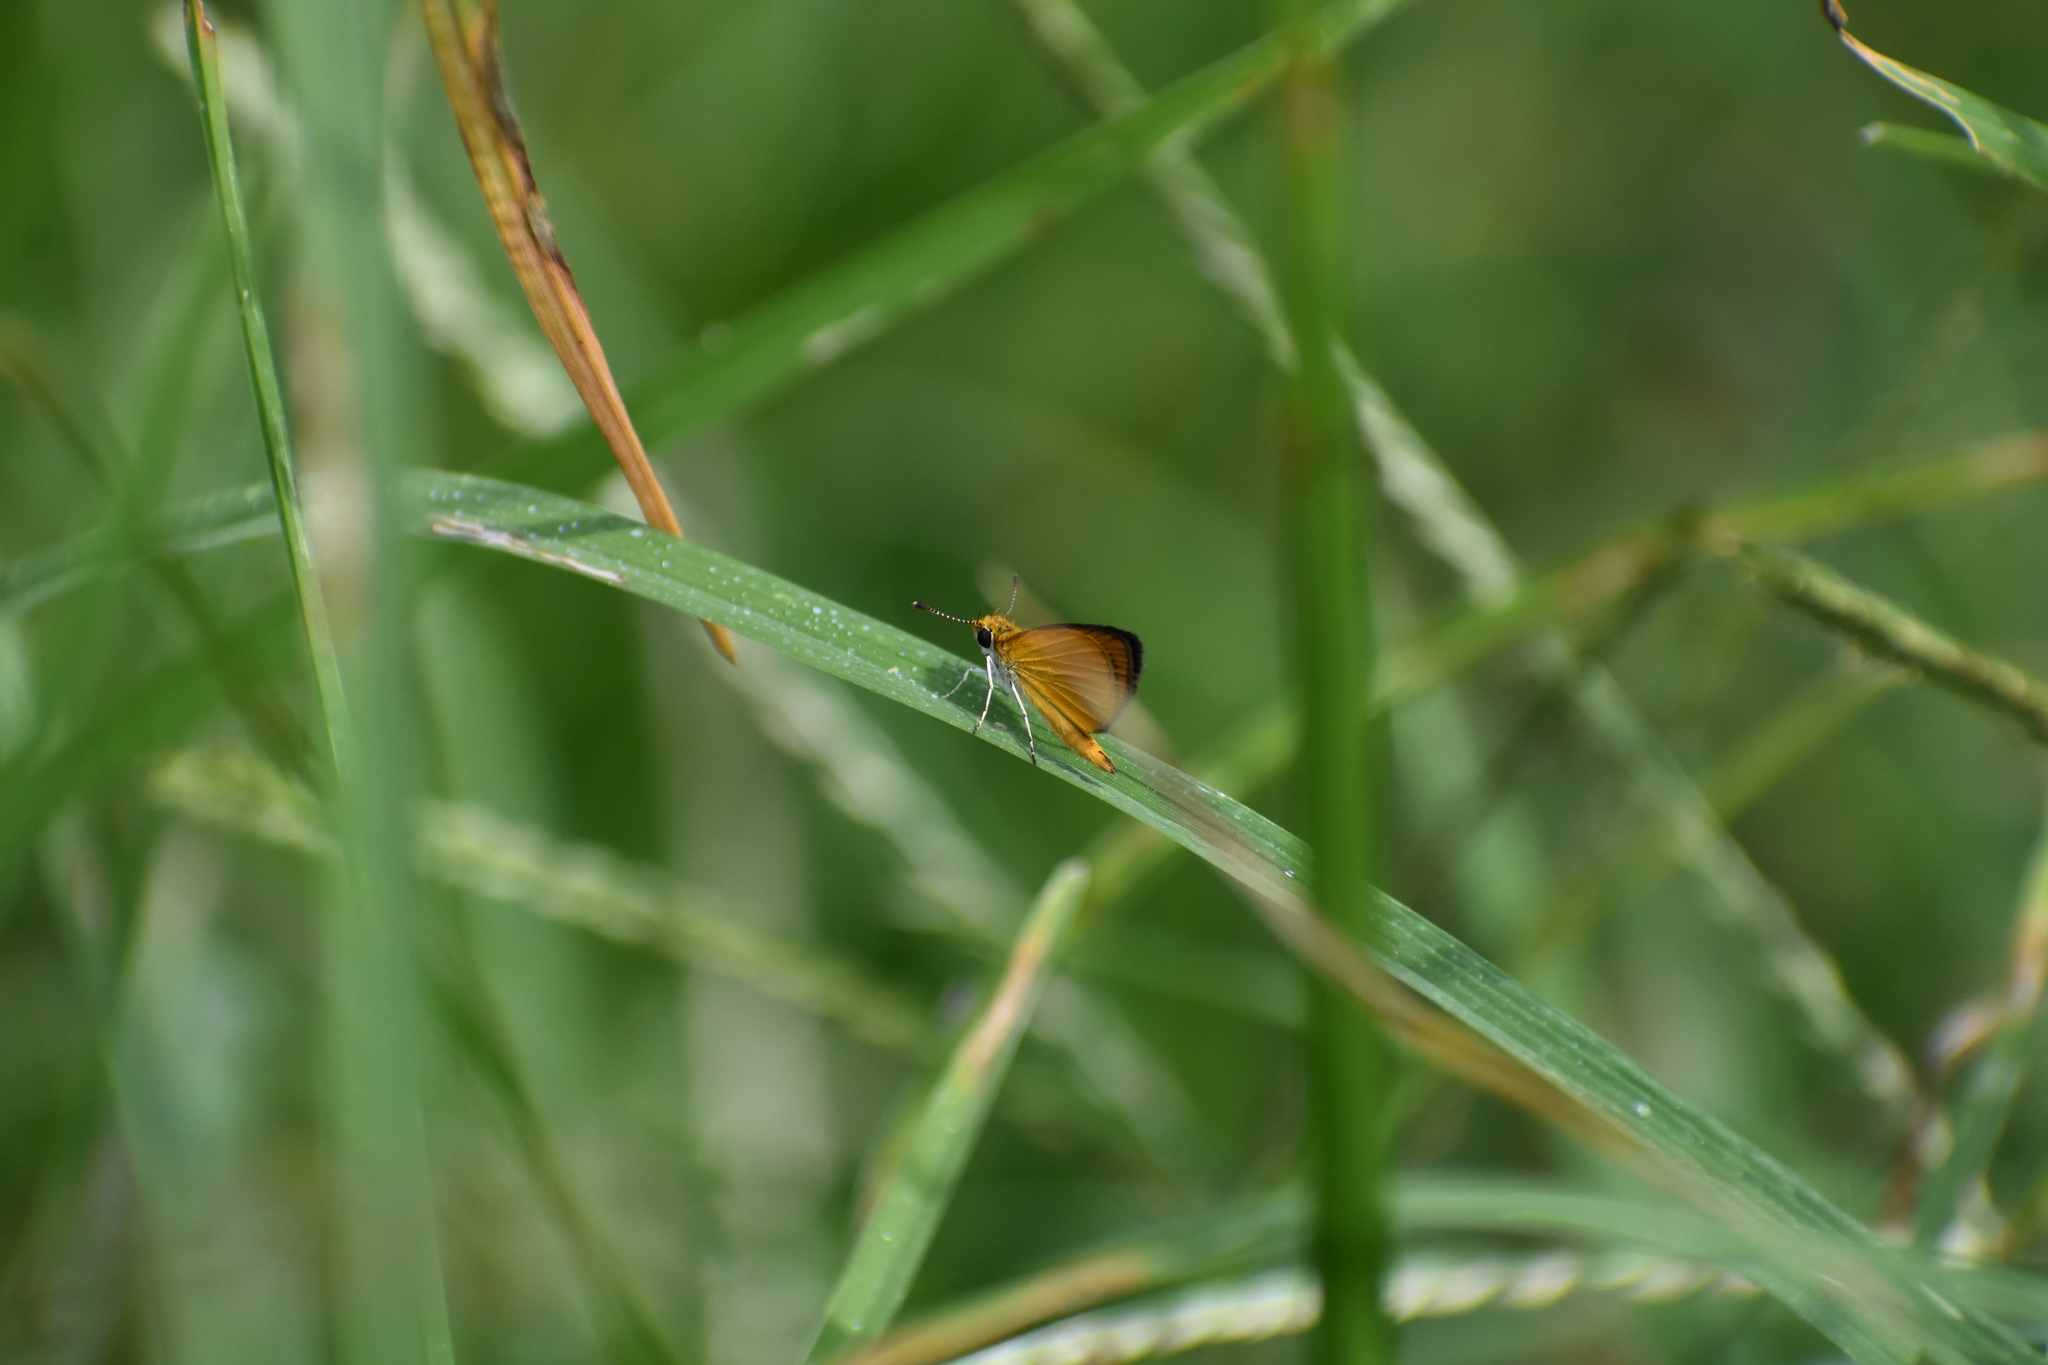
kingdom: Animalia
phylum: Arthropoda
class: Insecta
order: Lepidoptera
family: Hesperiidae
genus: Ancyloxypha
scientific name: Ancyloxypha numitor
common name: Least skipper
